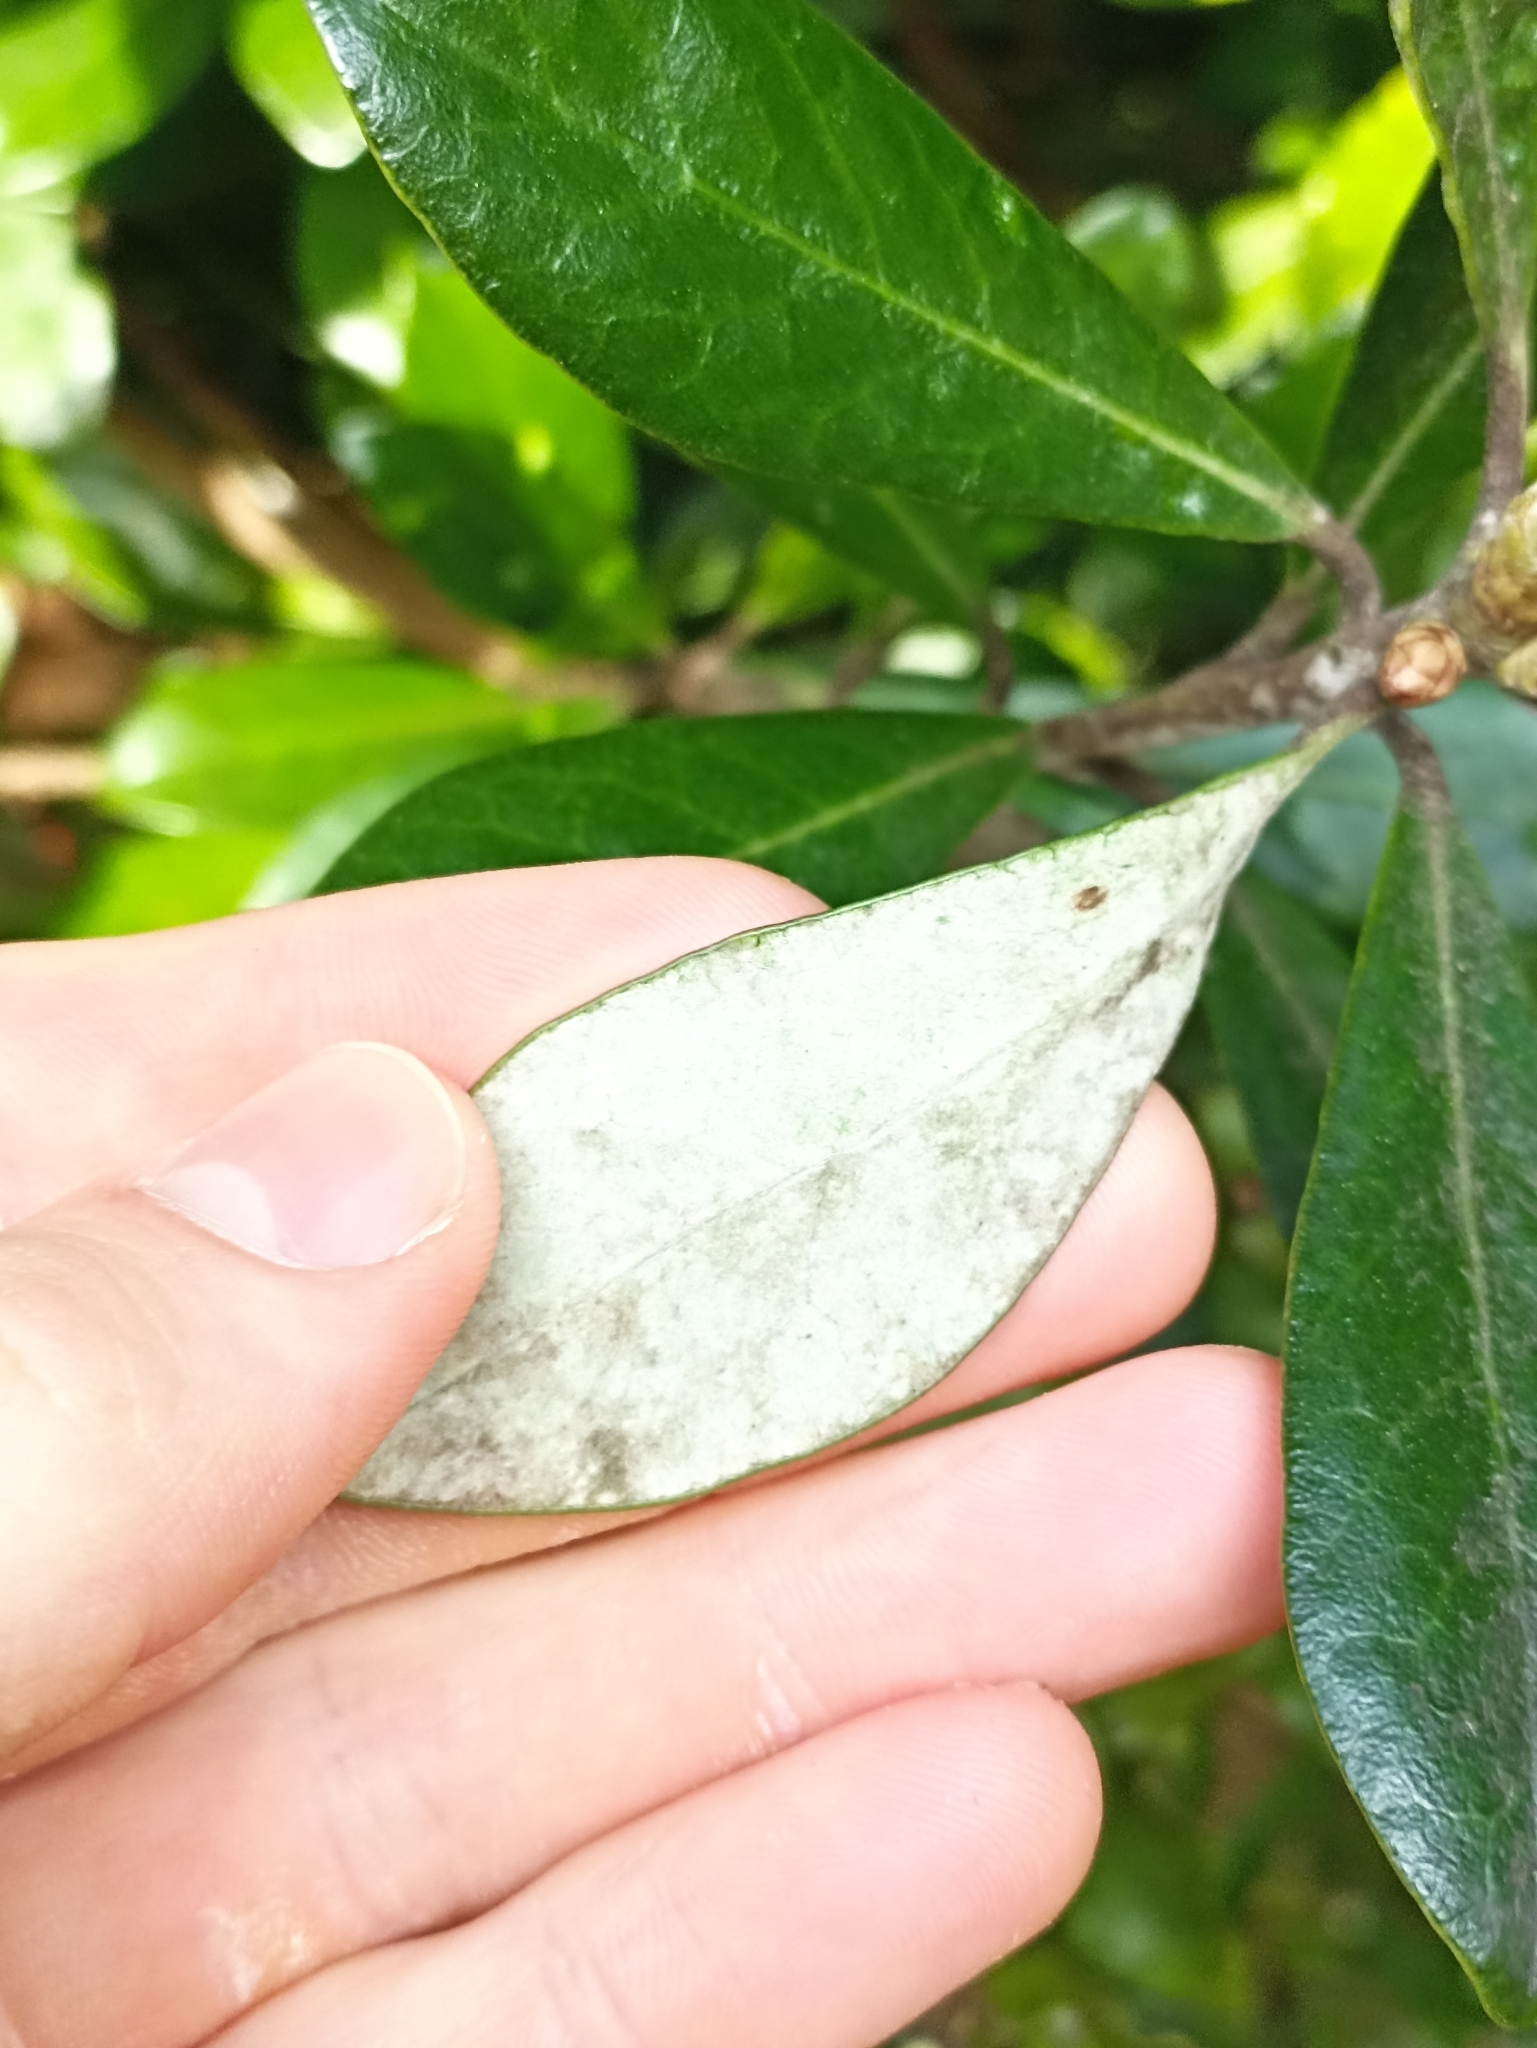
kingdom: Plantae
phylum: Tracheophyta
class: Magnoliopsida
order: Apiales
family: Pittosporaceae
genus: Pittosporum
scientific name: Pittosporum crassifolium
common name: Karo
